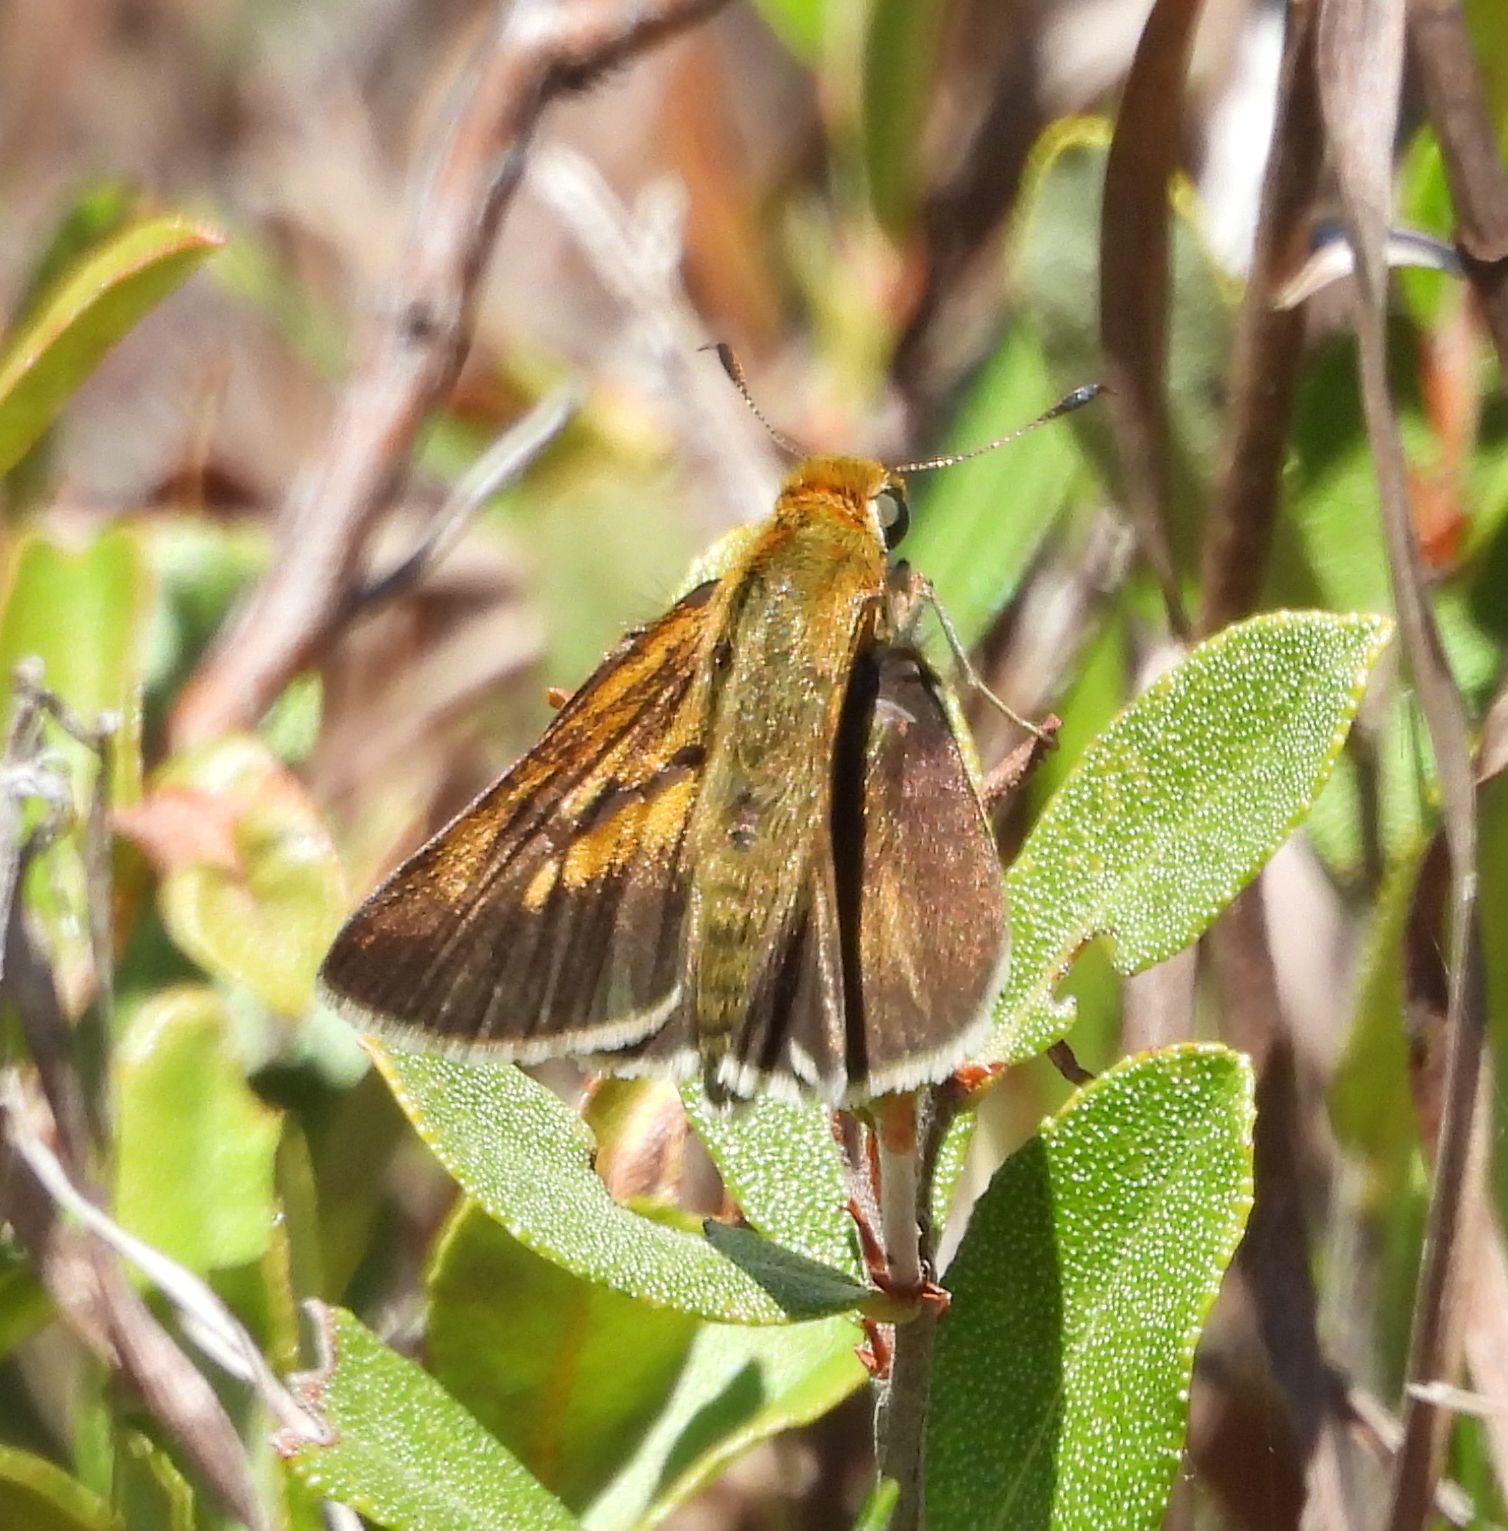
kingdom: Animalia
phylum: Arthropoda
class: Insecta
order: Lepidoptera
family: Hesperiidae
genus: Euphyes
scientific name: Euphyes bimacula
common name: Two-spotted skipper
